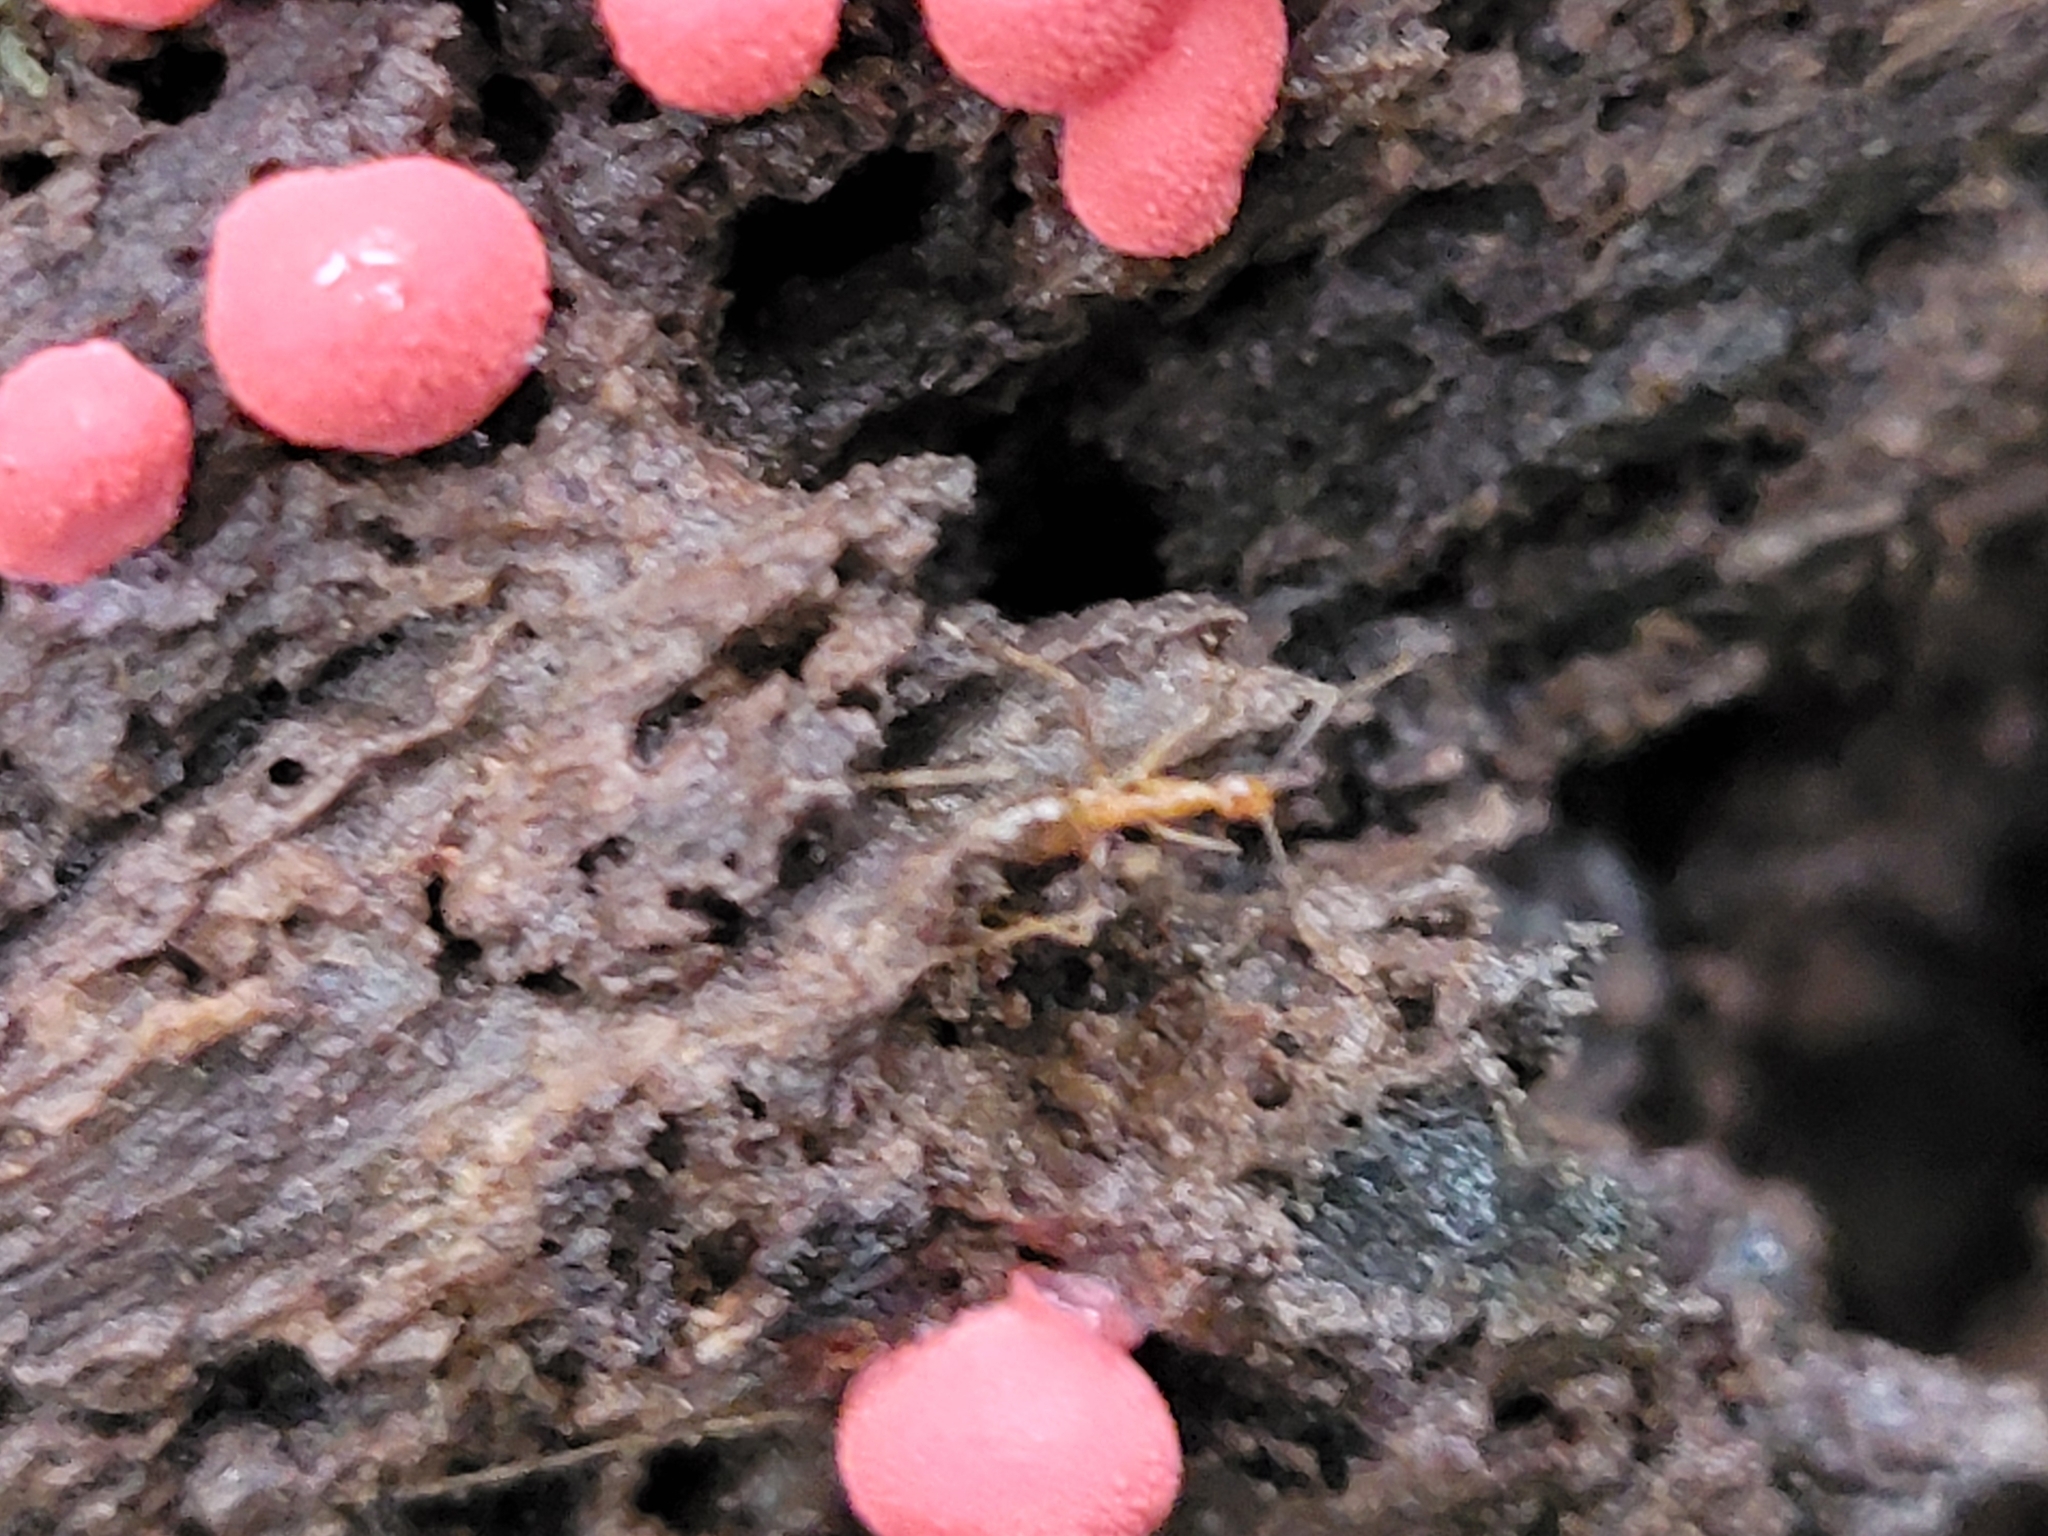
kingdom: Animalia
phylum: Arthropoda
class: Insecta
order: Hymenoptera
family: Formicidae
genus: Anoplolepis
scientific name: Anoplolepis gracilipes
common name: Ant
